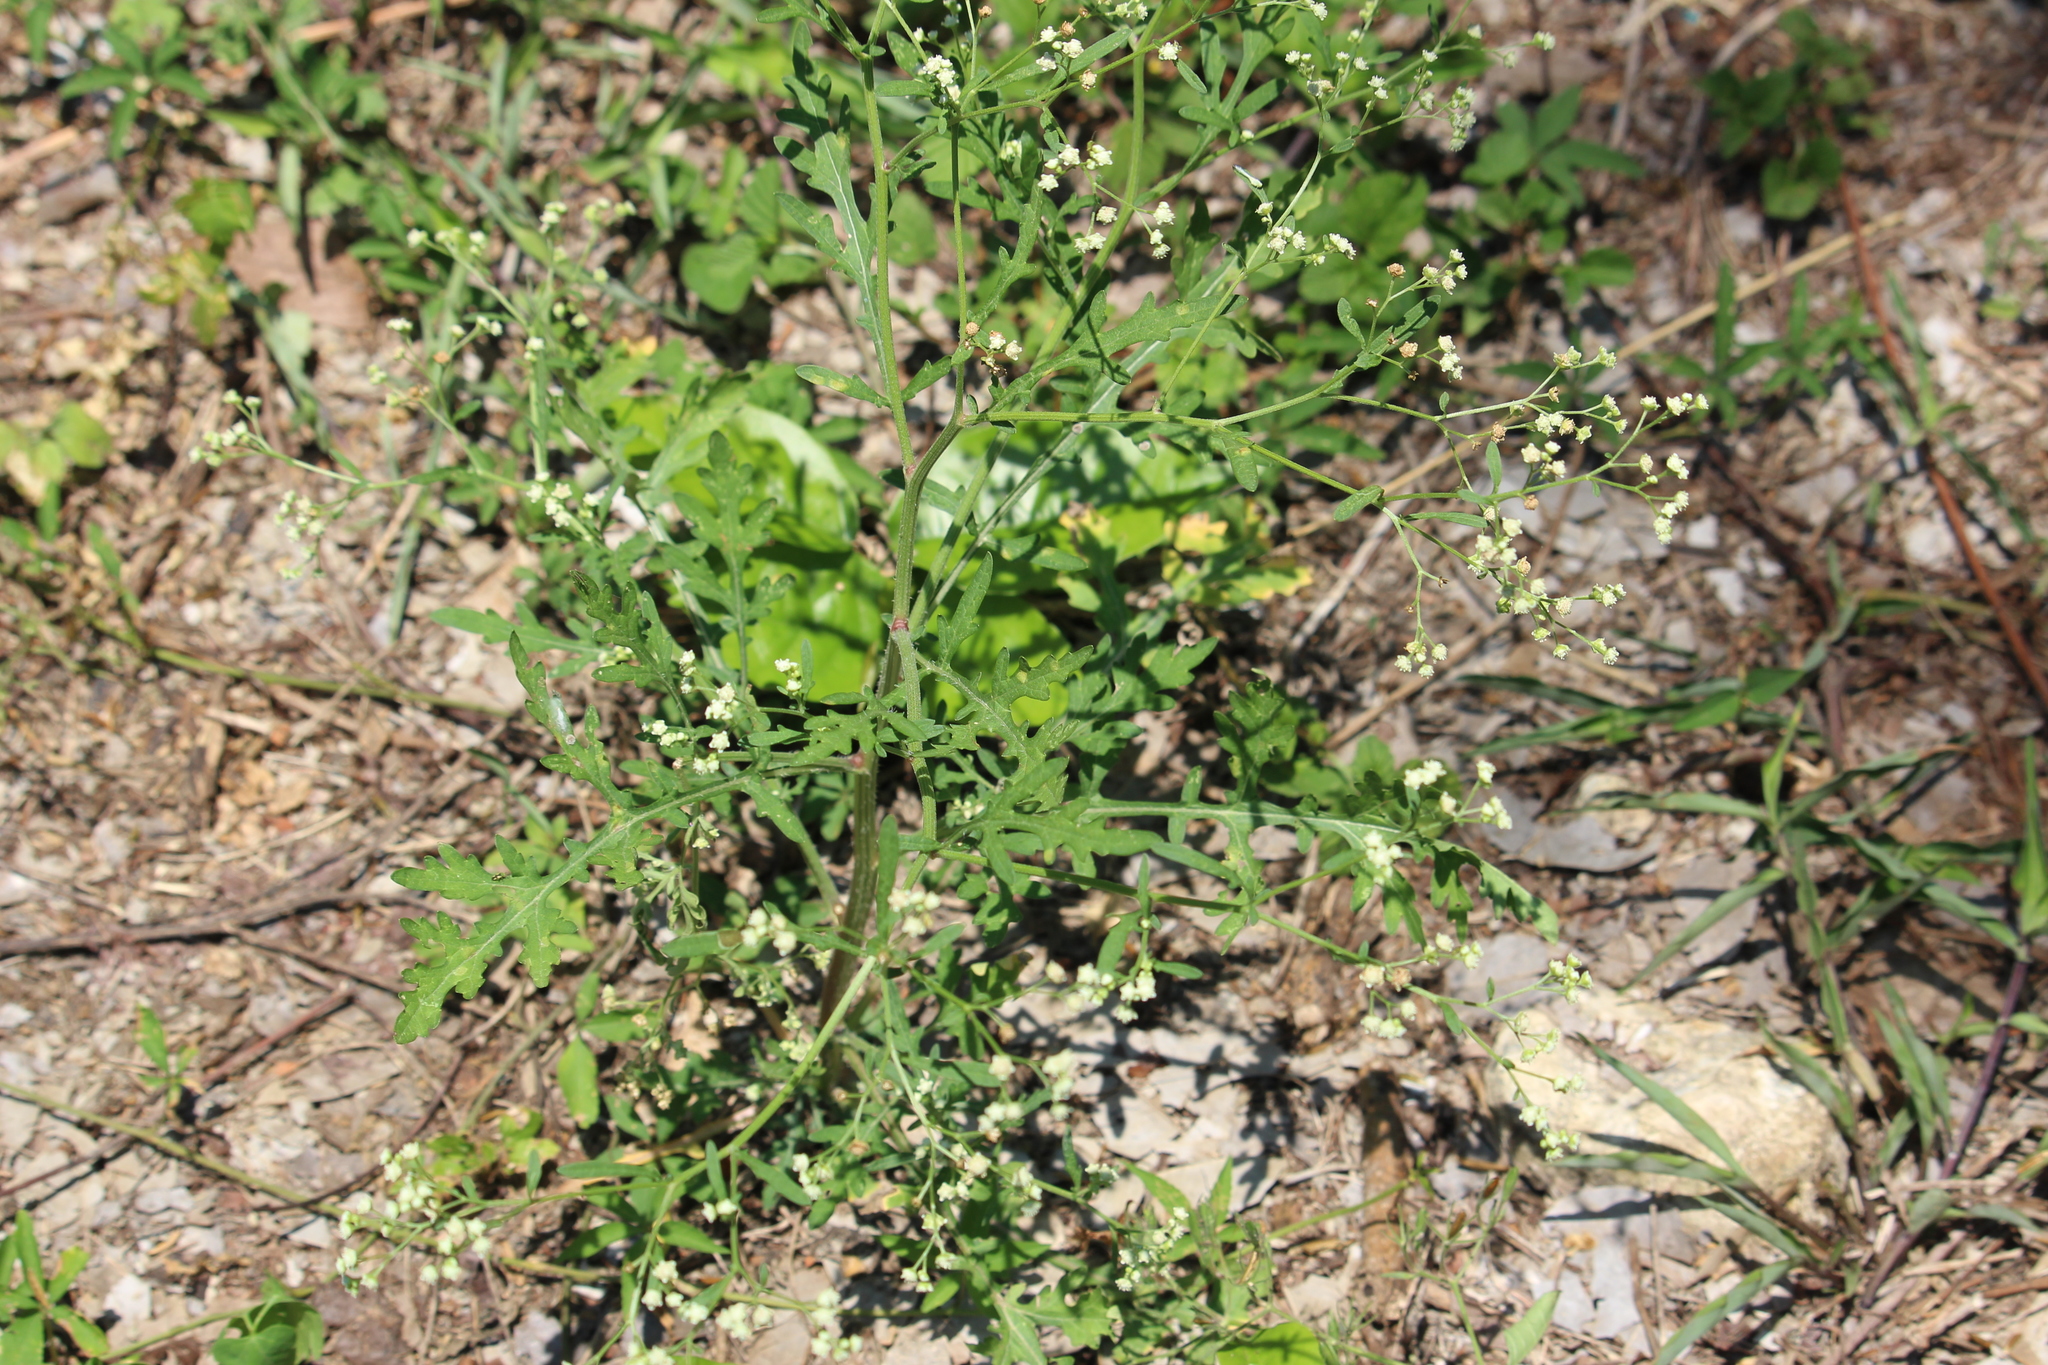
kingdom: Plantae
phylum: Tracheophyta
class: Magnoliopsida
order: Asterales
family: Asteraceae
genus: Parthenium
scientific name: Parthenium hysterophorus
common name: Santa maria feverfew
